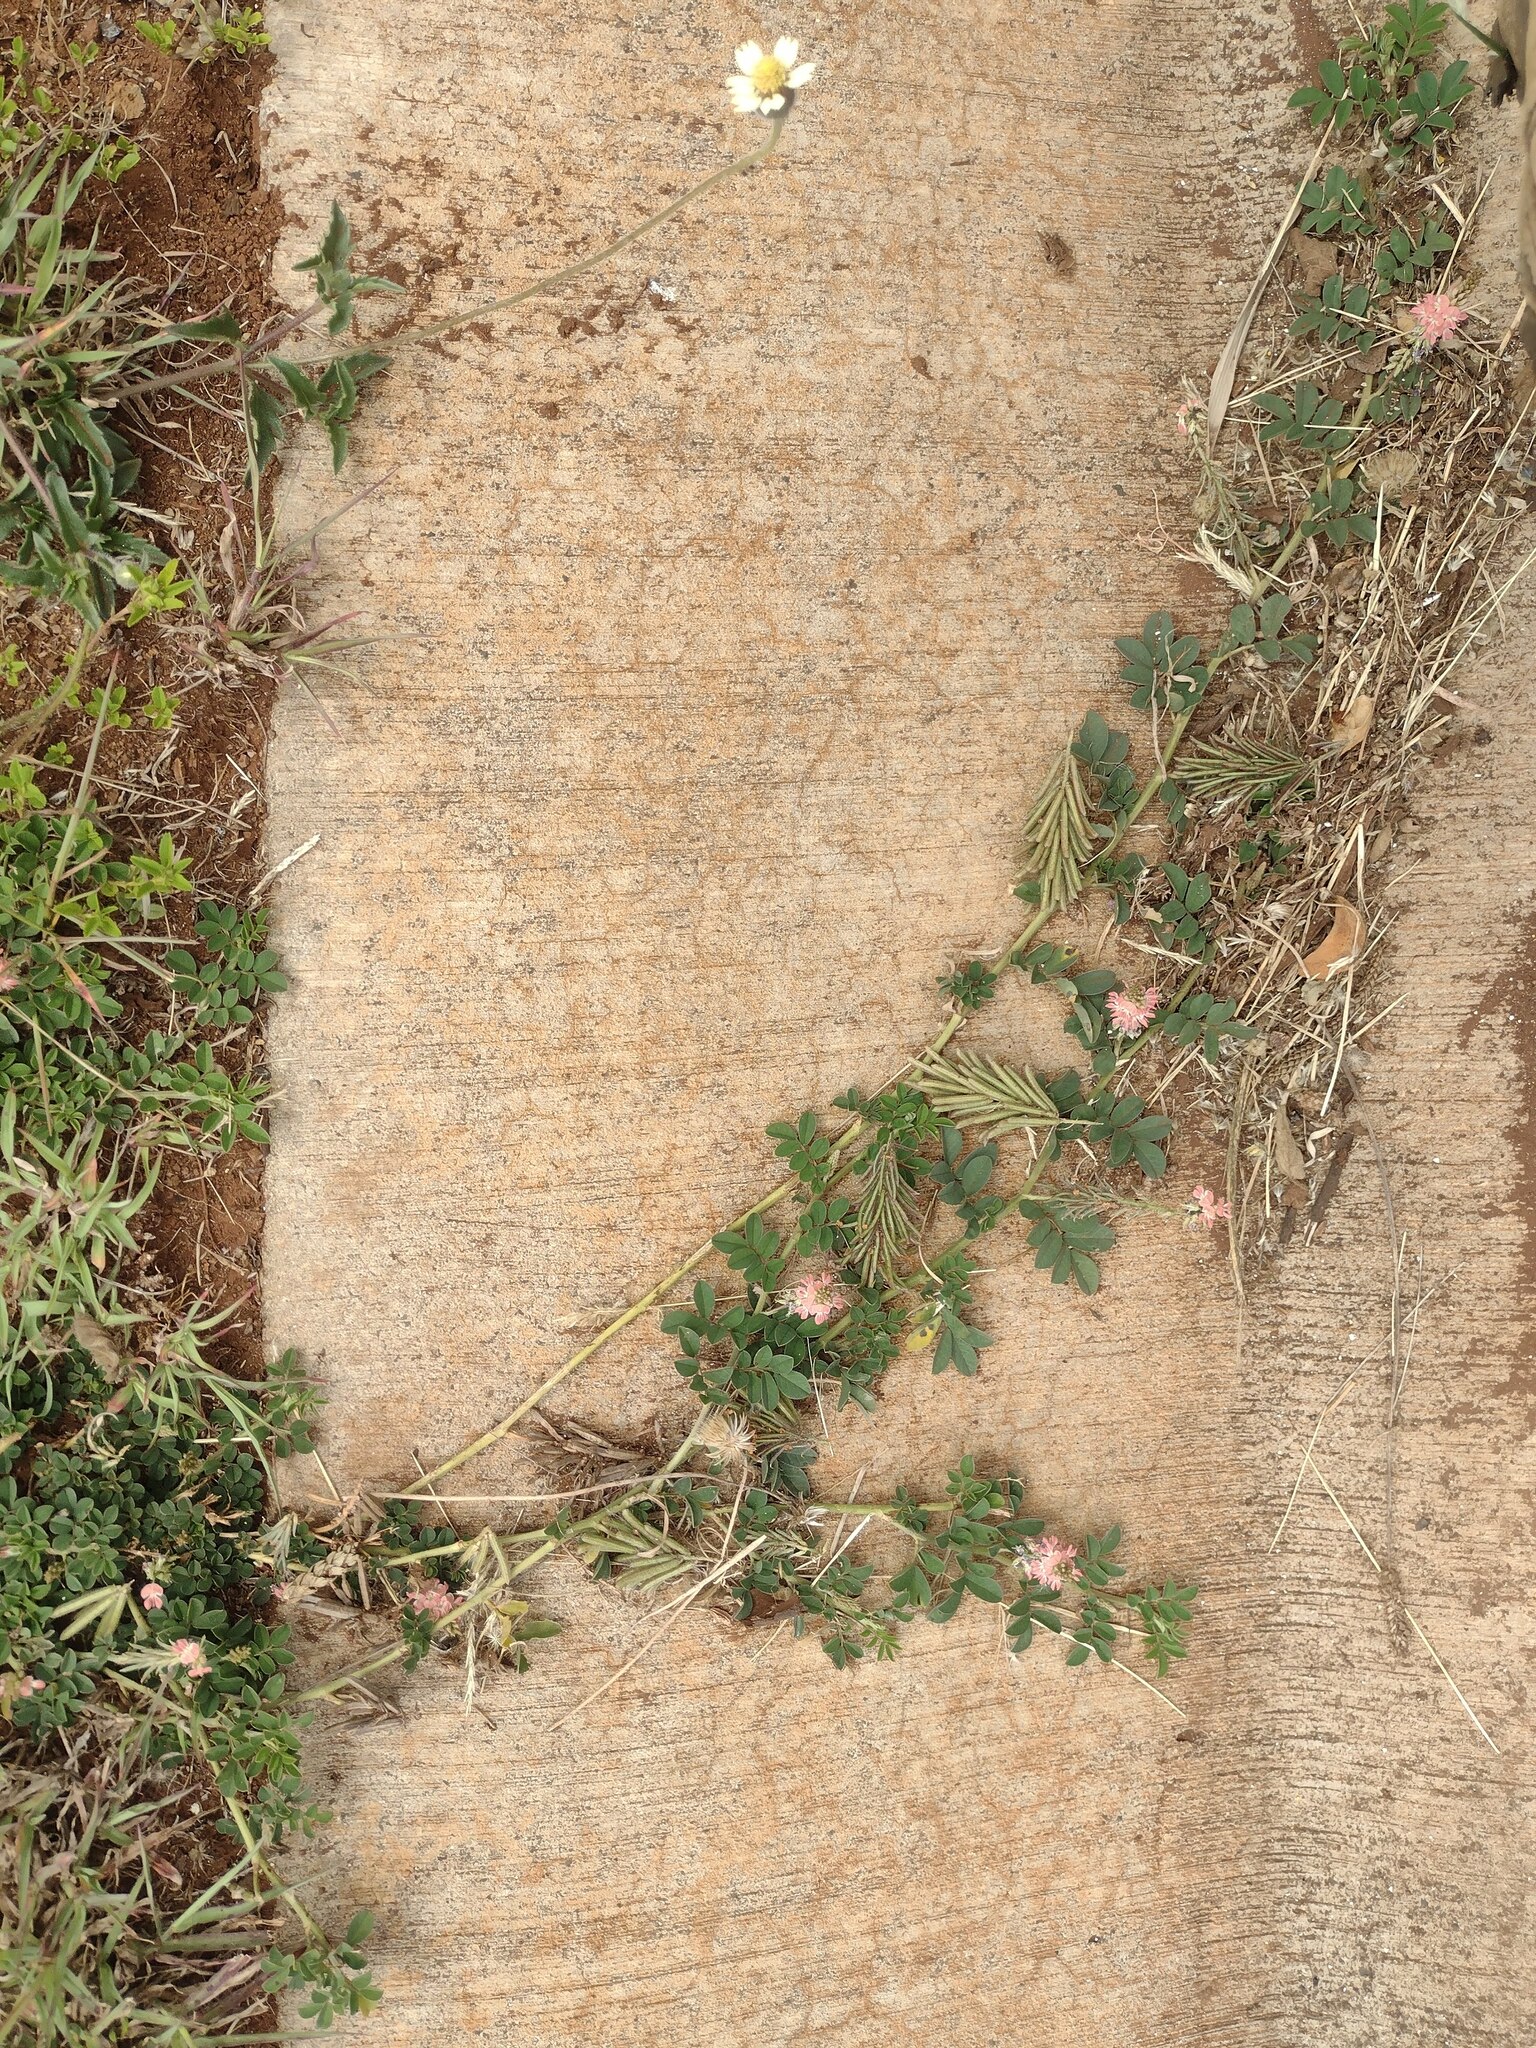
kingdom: Plantae
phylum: Tracheophyta
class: Magnoliopsida
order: Fabales
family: Fabaceae
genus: Indigofera
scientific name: Indigofera spicata
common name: Creeping indigo
